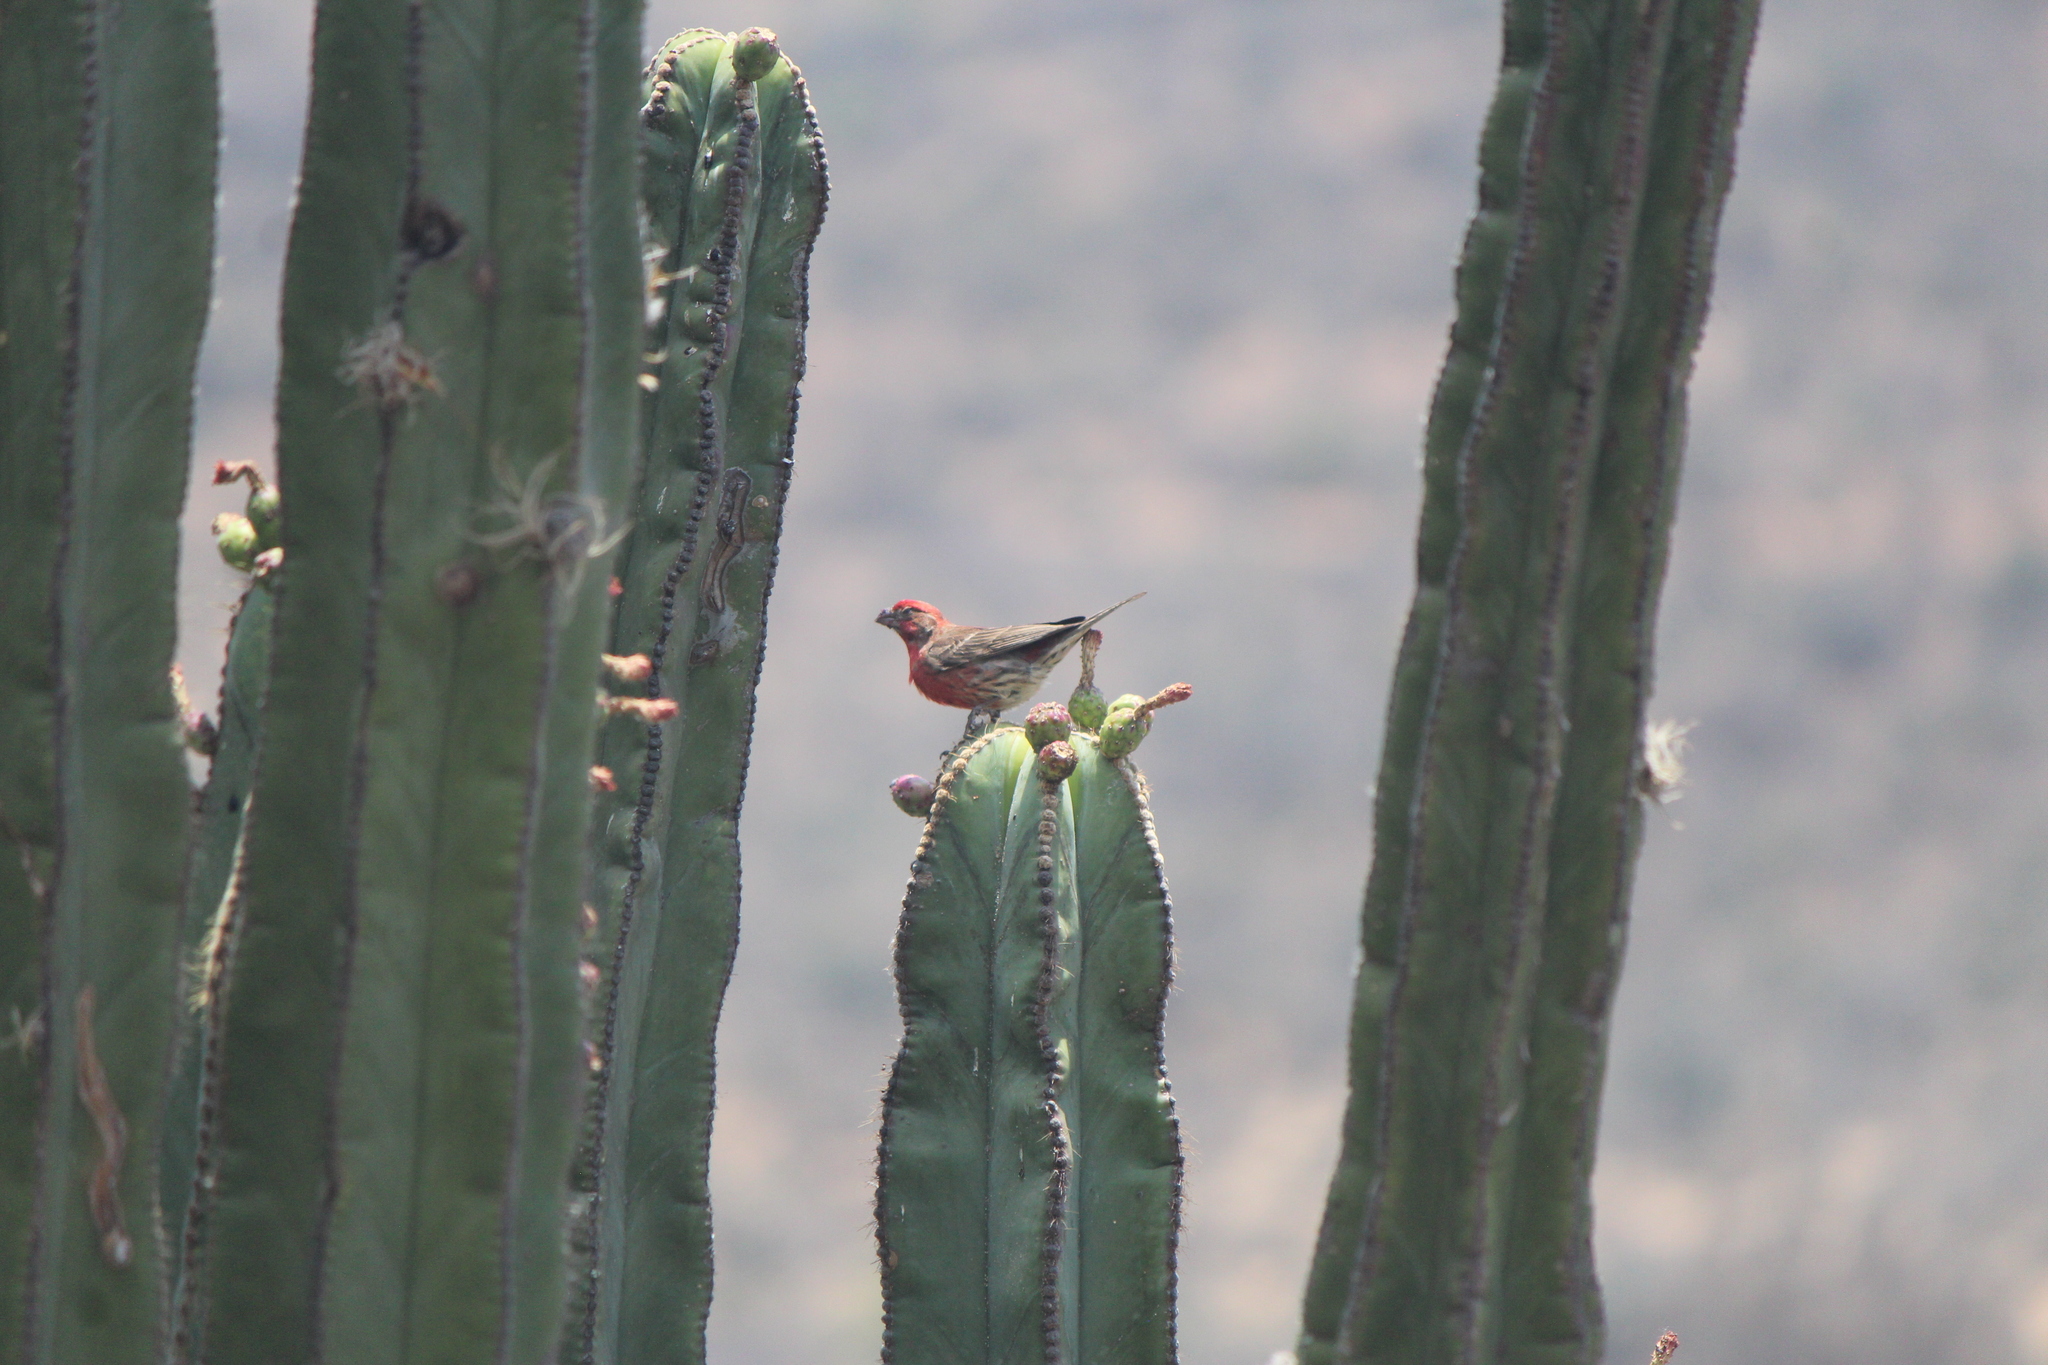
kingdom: Animalia
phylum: Chordata
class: Aves
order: Passeriformes
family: Fringillidae
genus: Haemorhous
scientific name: Haemorhous mexicanus
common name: House finch
